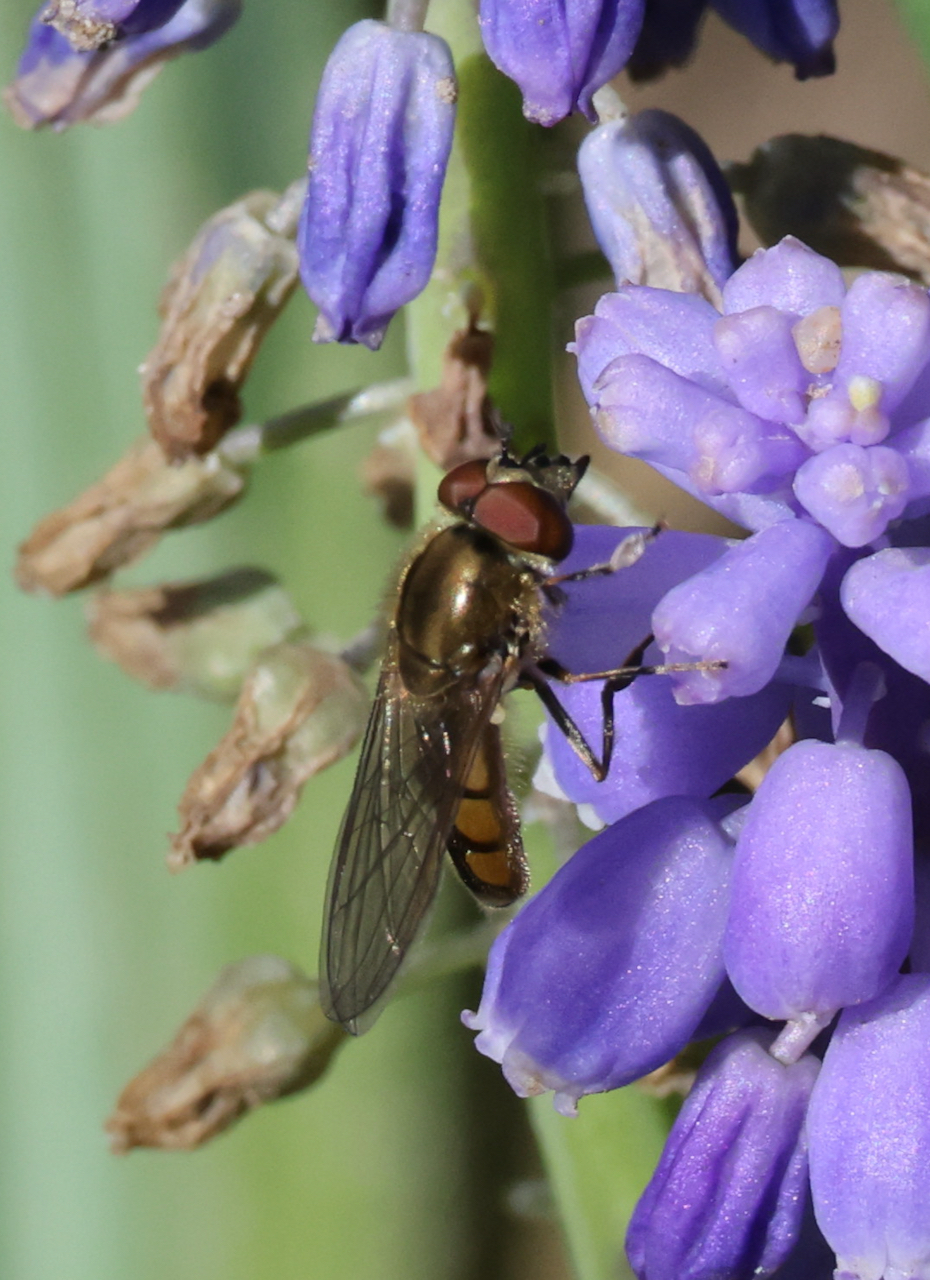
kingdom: Animalia
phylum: Arthropoda
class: Insecta
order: Diptera
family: Syrphidae
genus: Platycheirus
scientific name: Platycheirus manicatus
